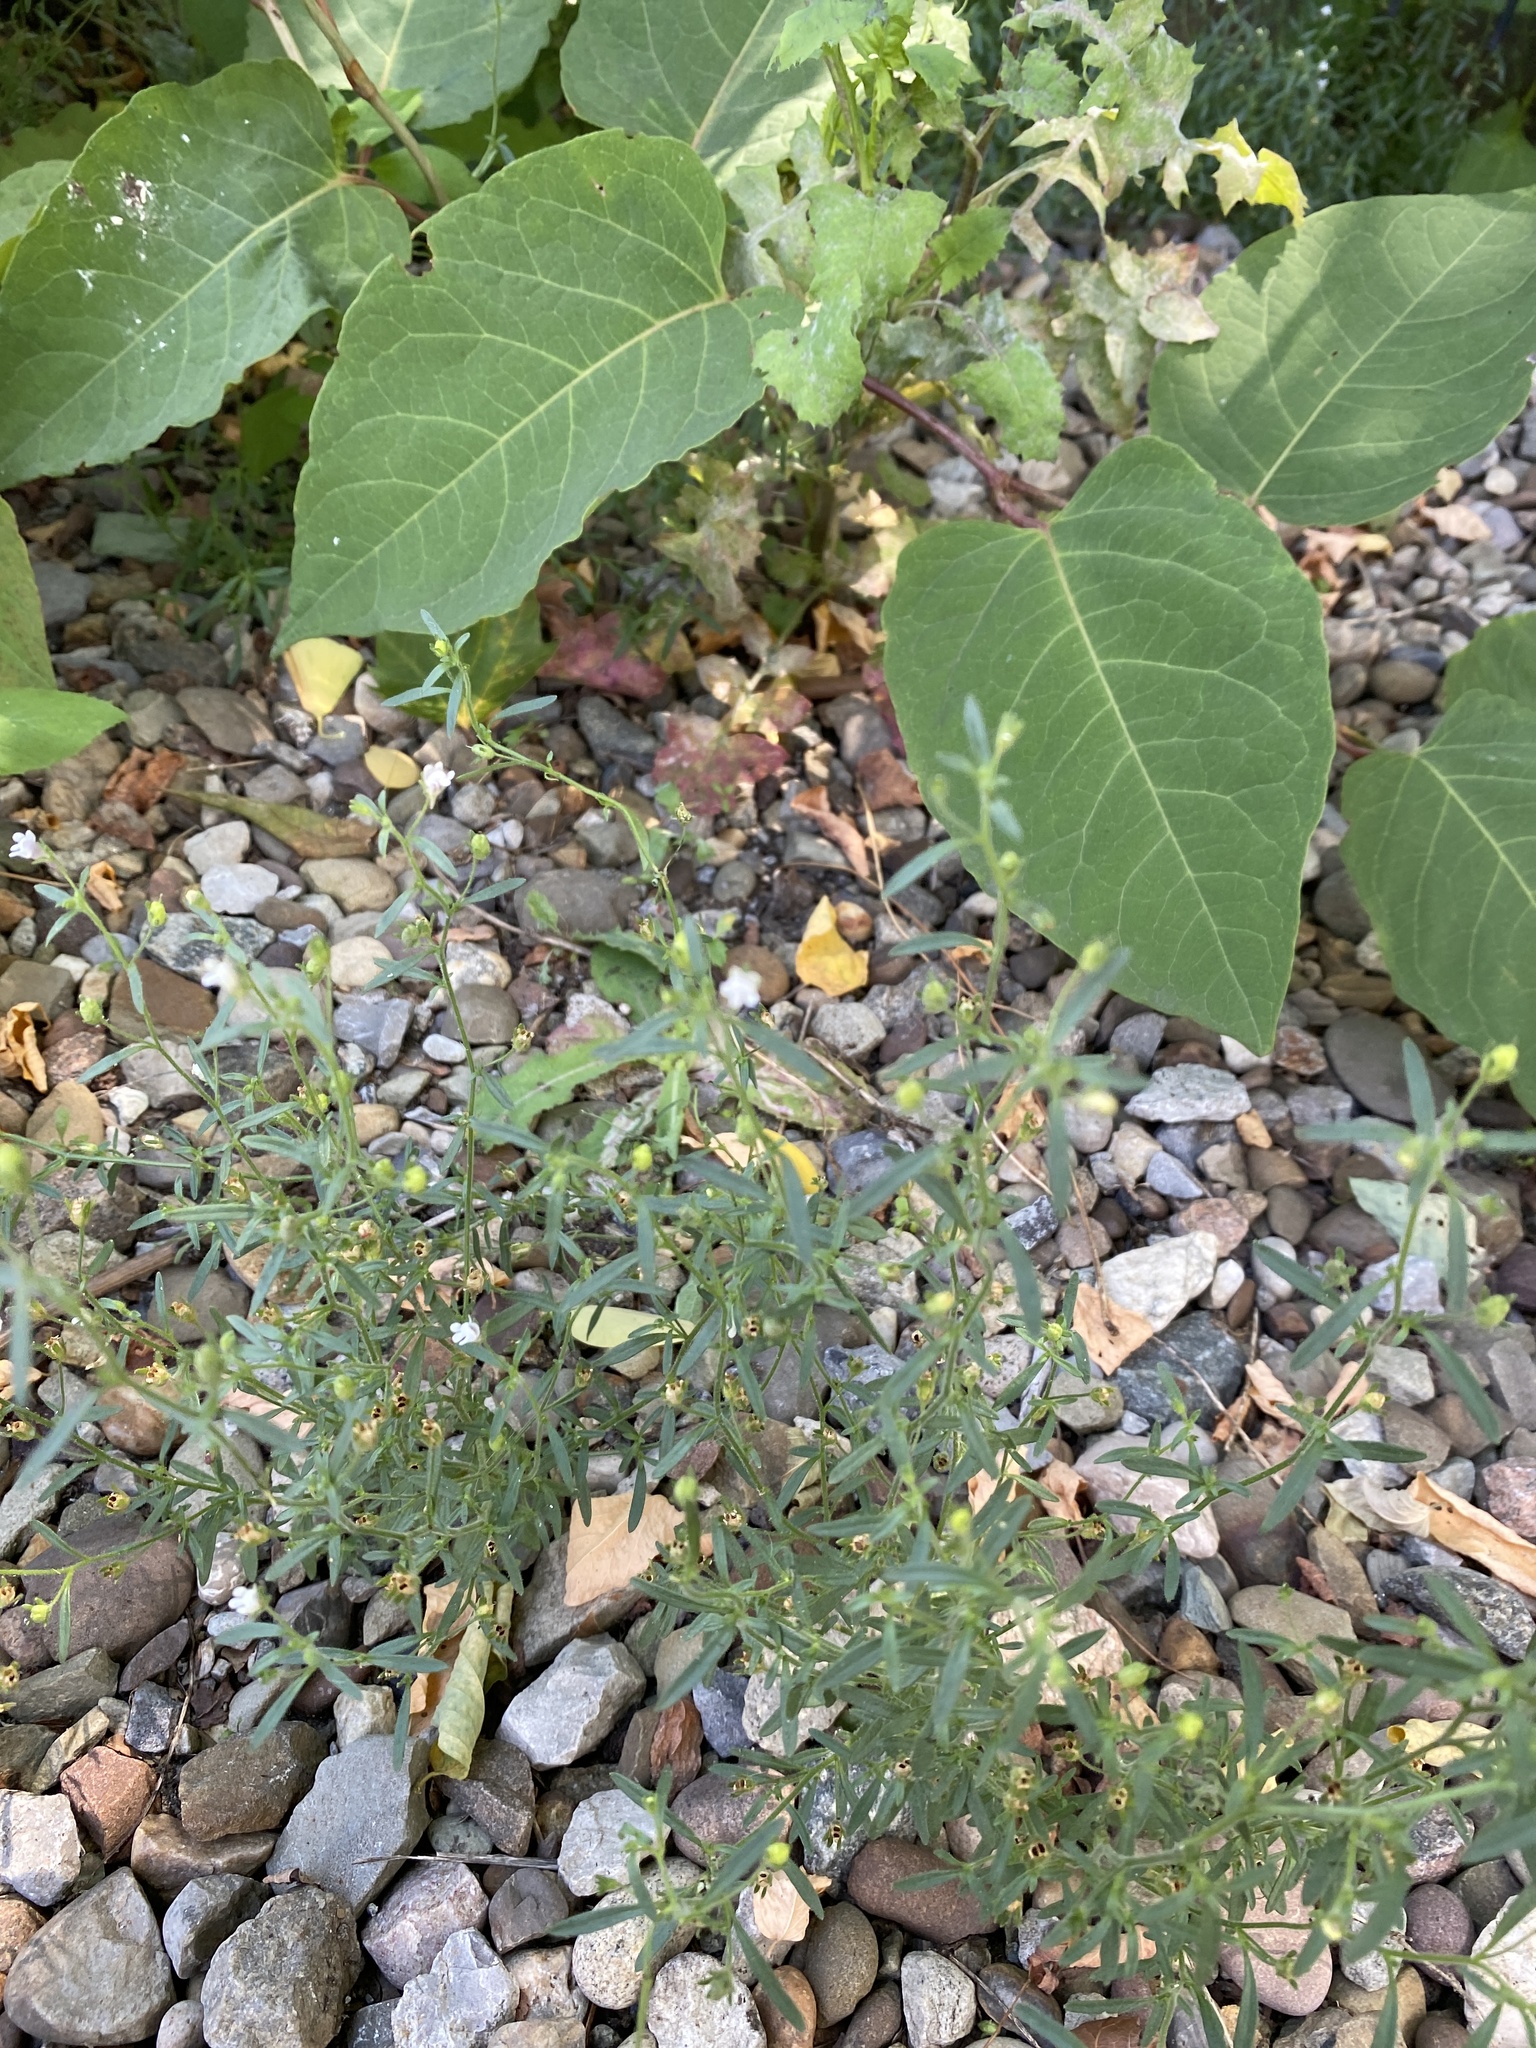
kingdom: Plantae
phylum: Tracheophyta
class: Magnoliopsida
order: Lamiales
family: Plantaginaceae
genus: Chaenorhinum
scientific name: Chaenorhinum minus
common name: Dwarf snapdragon
